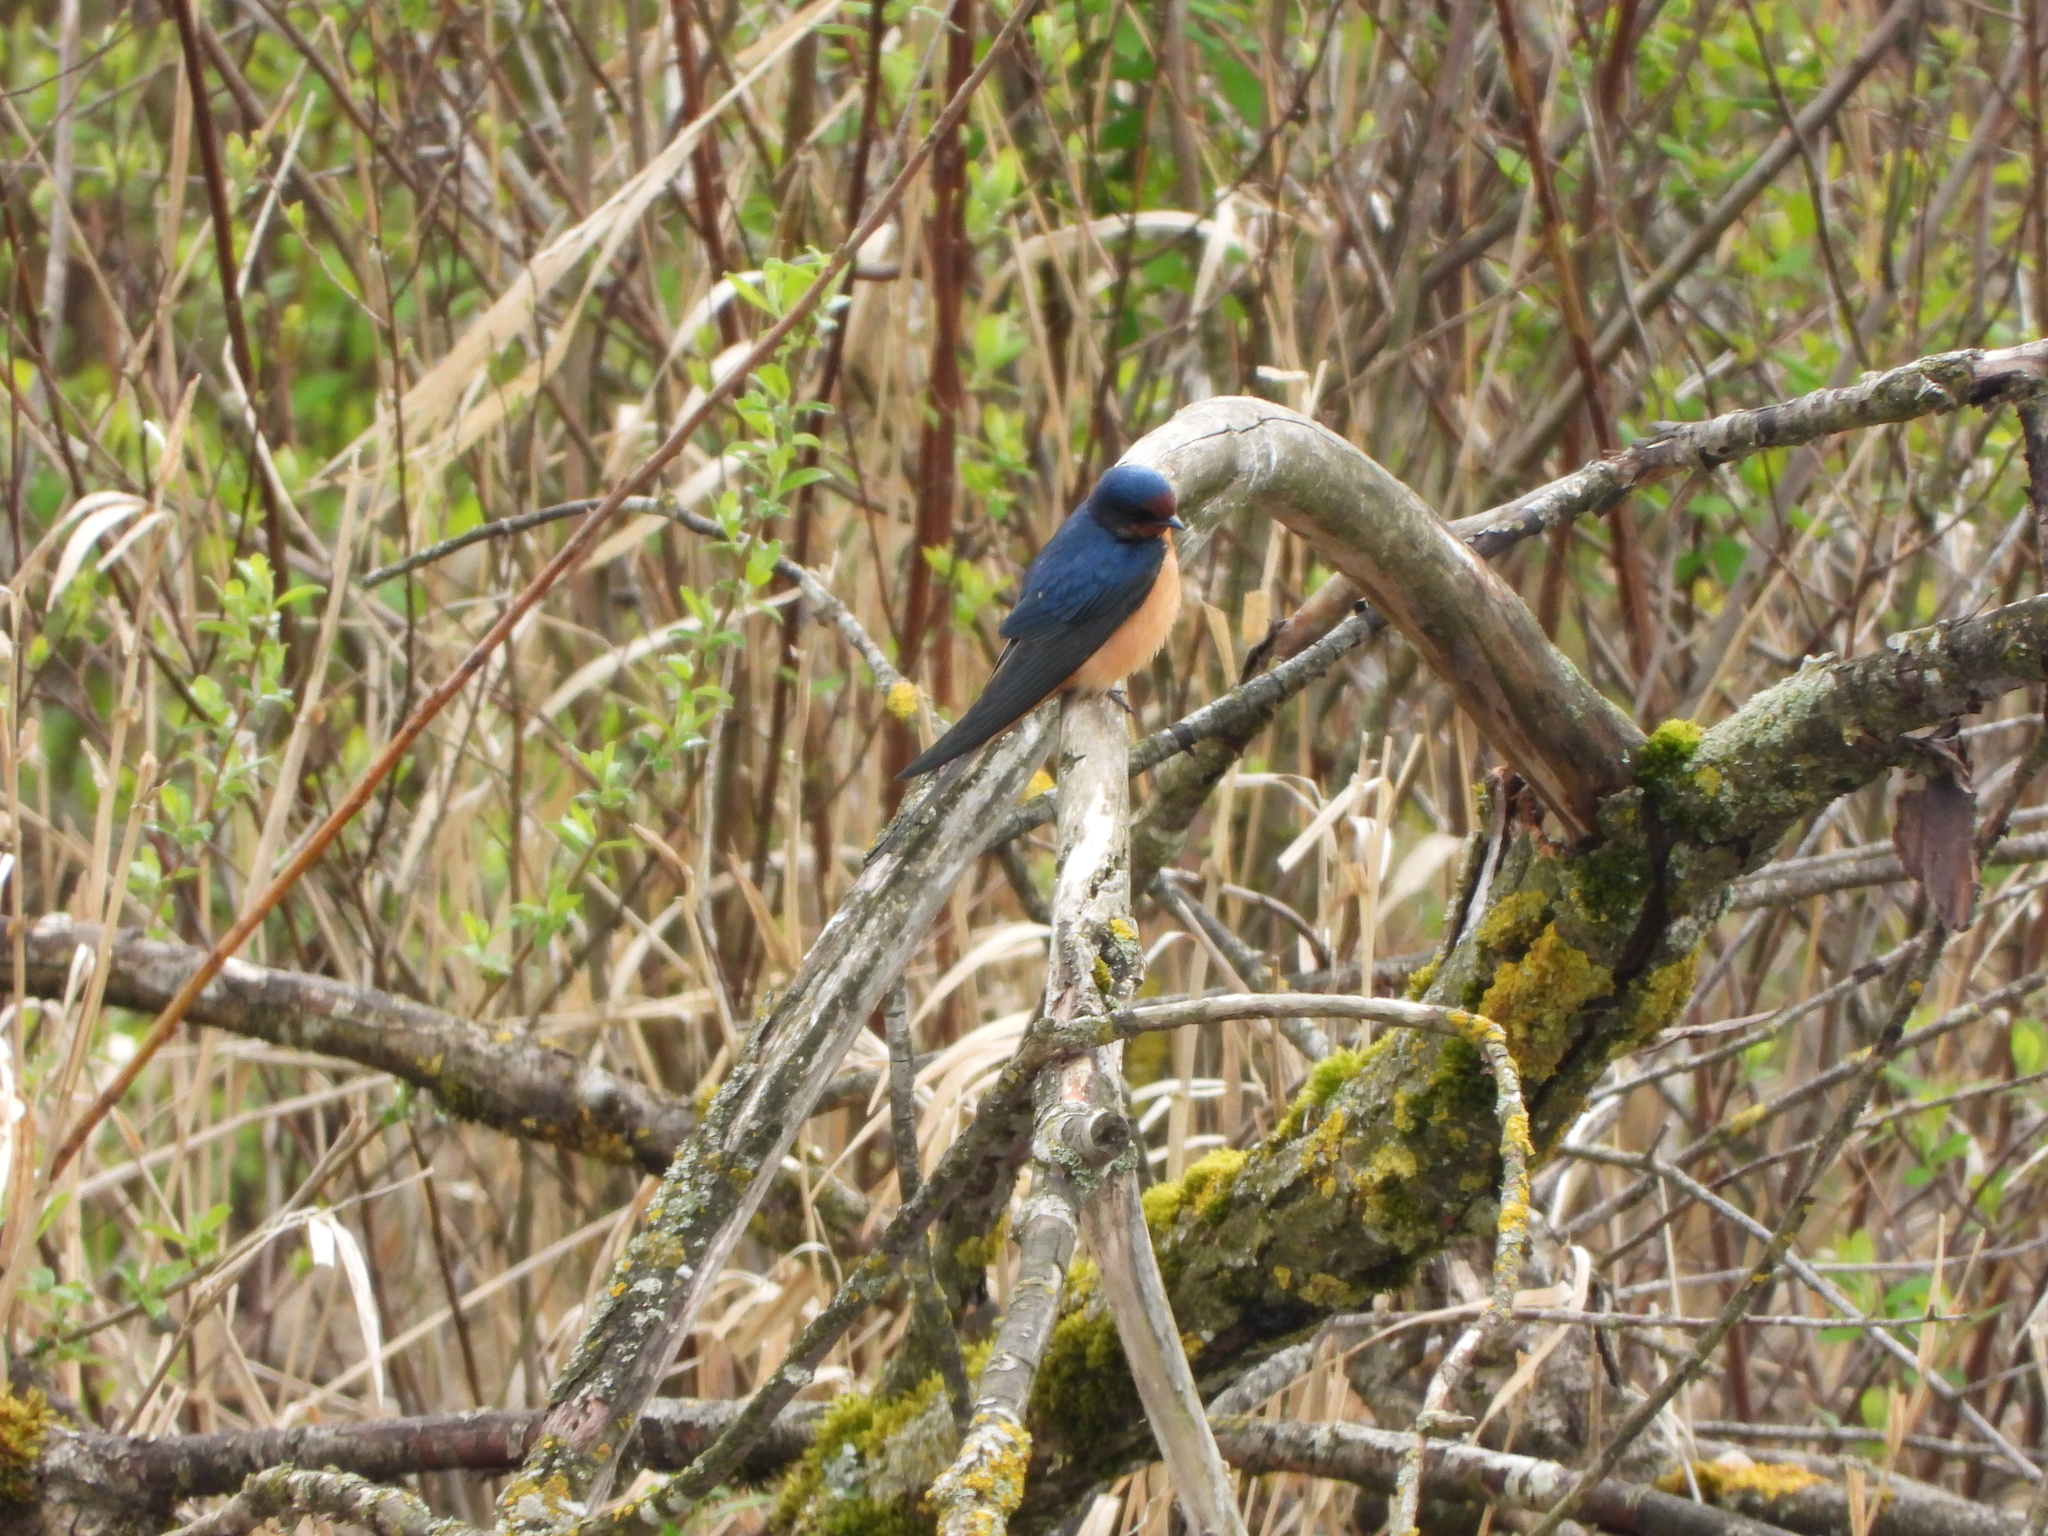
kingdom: Animalia
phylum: Chordata
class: Aves
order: Passeriformes
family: Hirundinidae
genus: Hirundo
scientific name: Hirundo rustica
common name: Barn swallow
